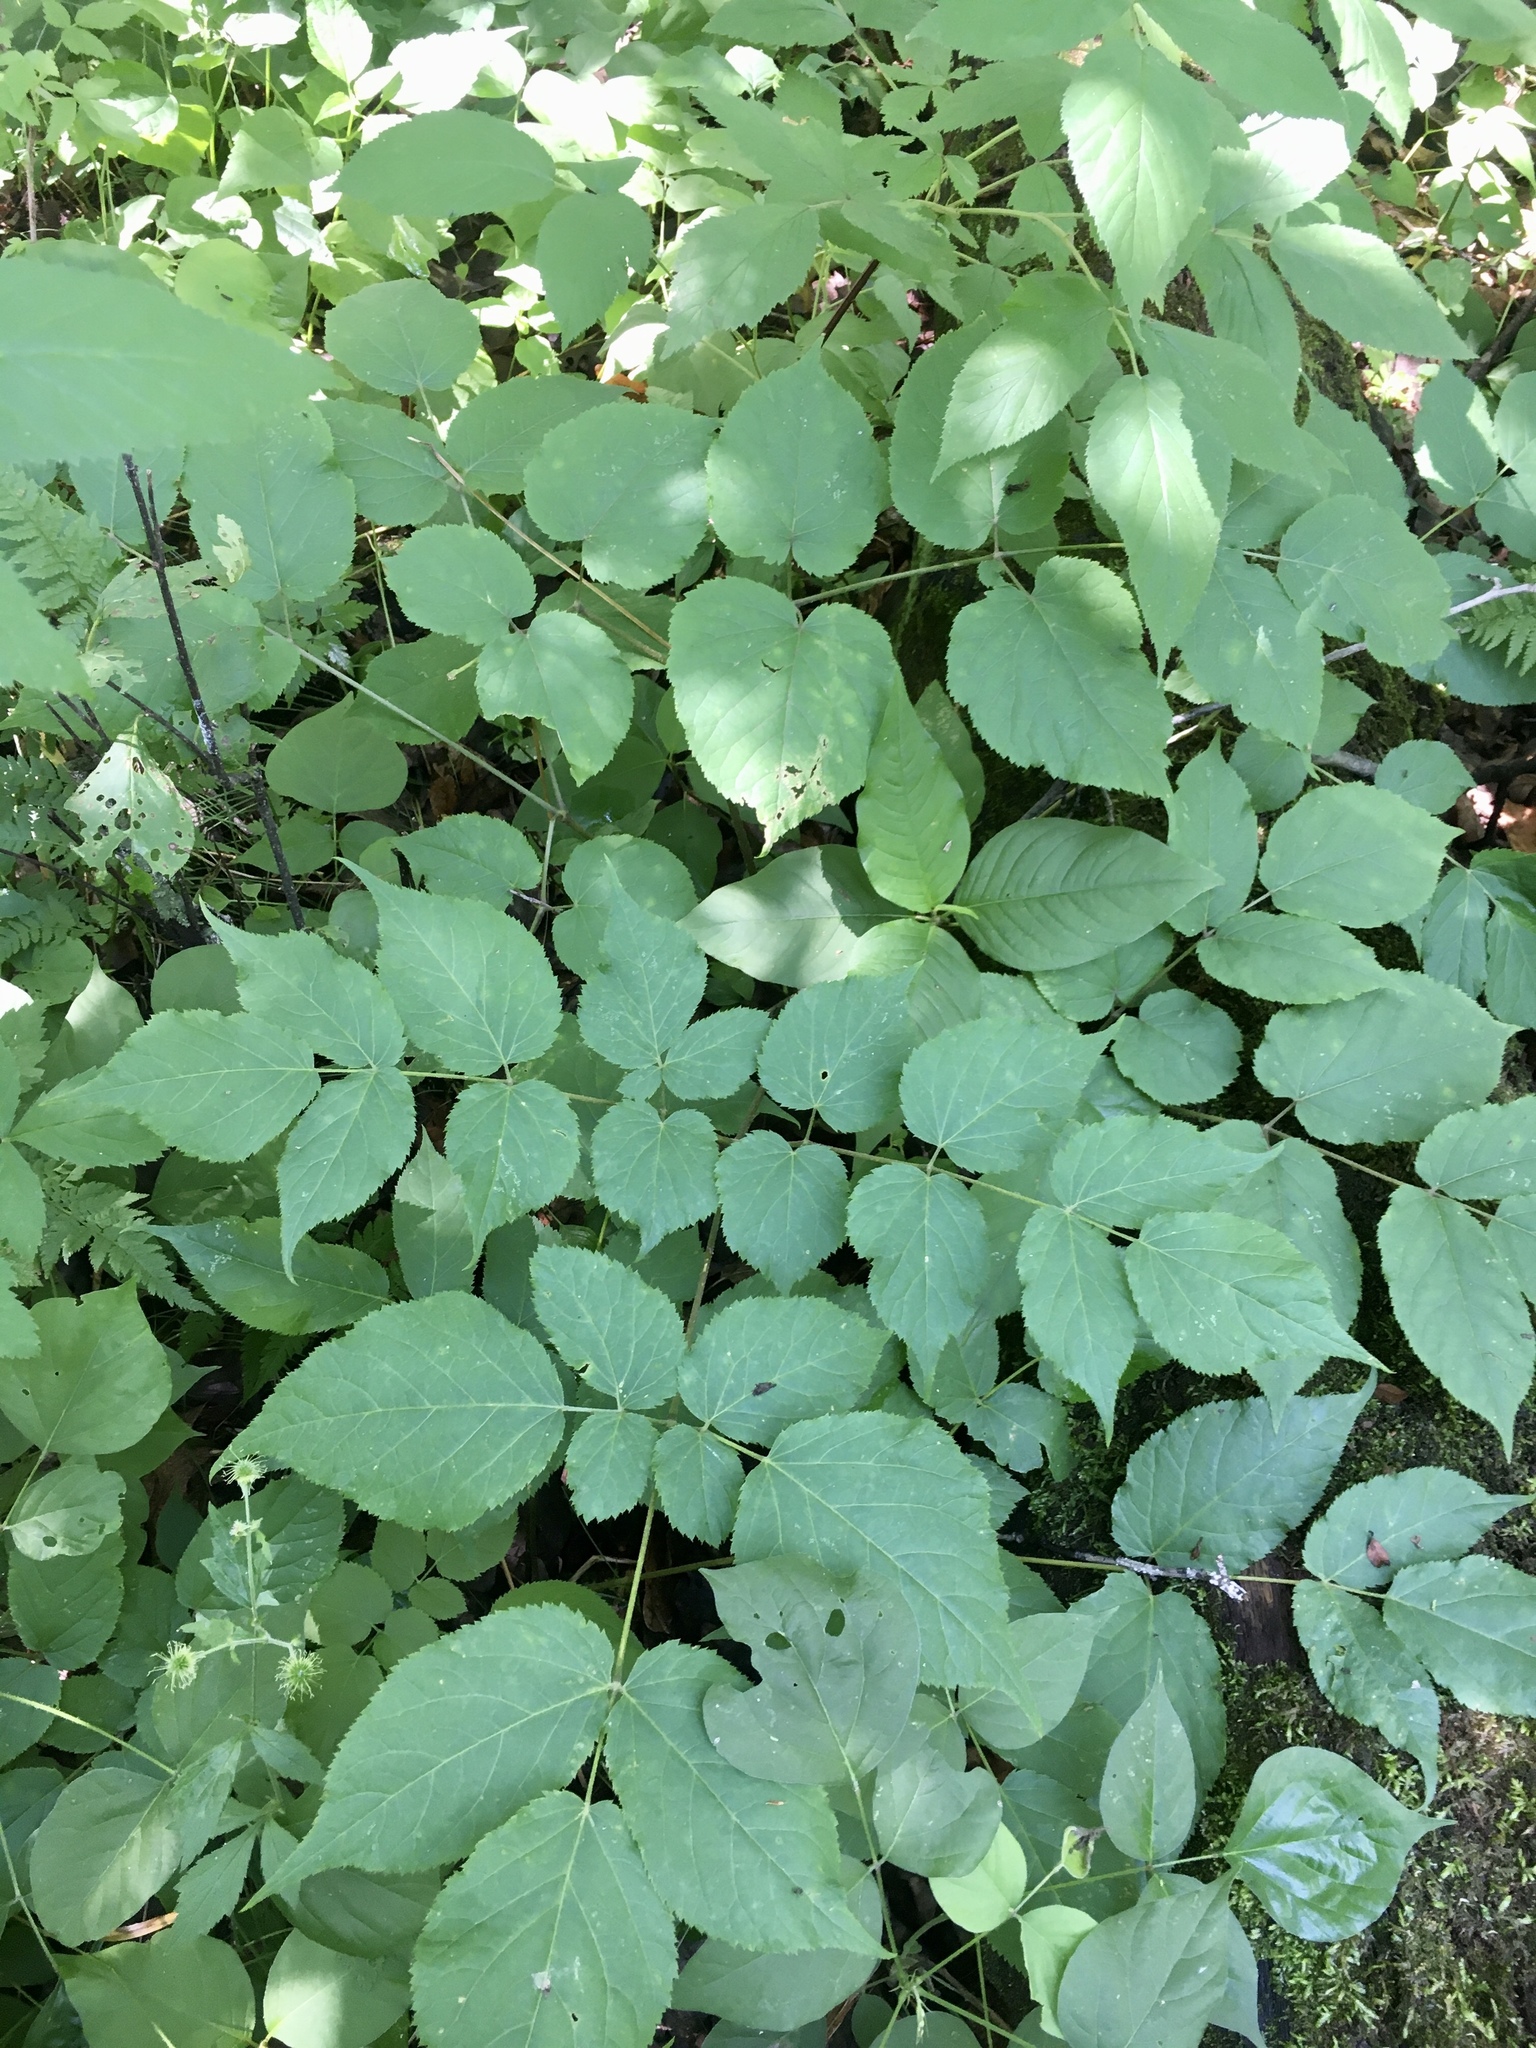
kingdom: Plantae
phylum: Tracheophyta
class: Magnoliopsida
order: Apiales
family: Araliaceae
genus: Aralia
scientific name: Aralia racemosa
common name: American-spikenard
